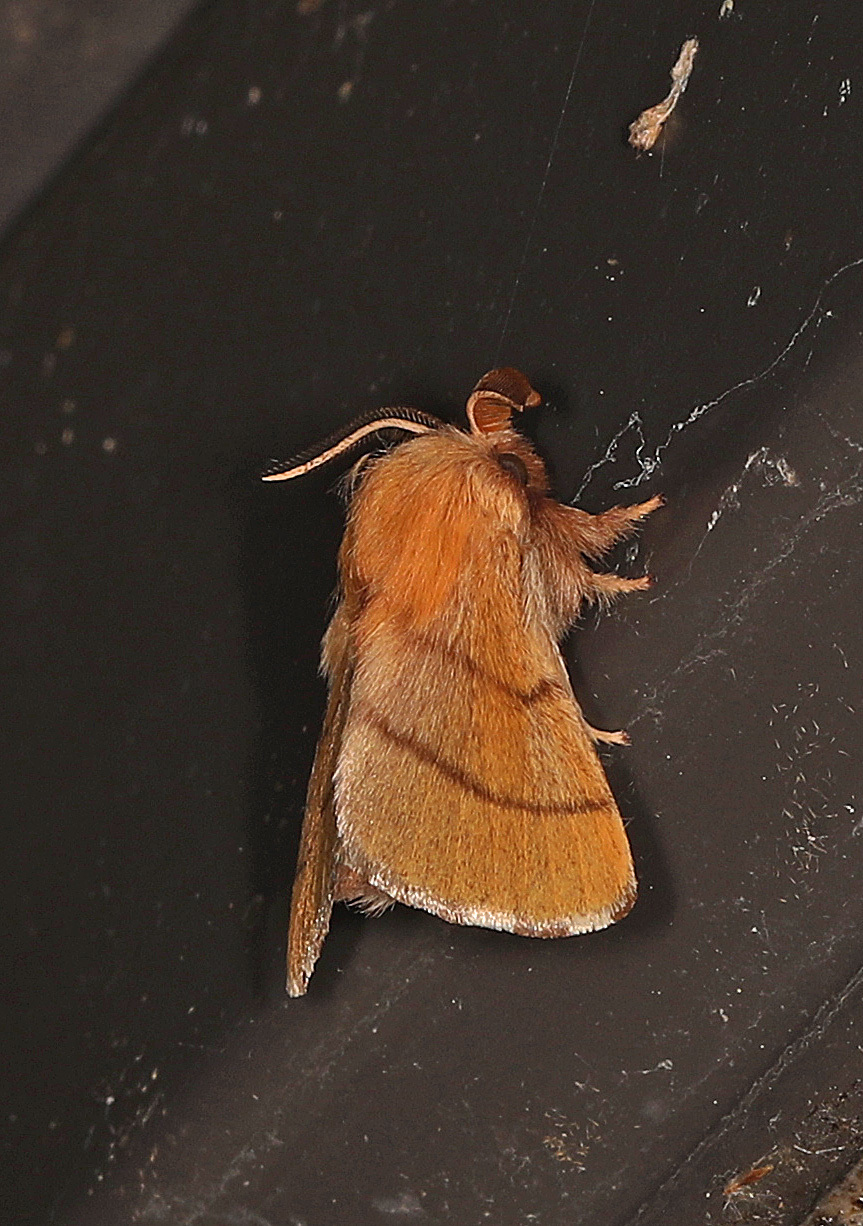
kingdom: Animalia
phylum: Arthropoda
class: Insecta
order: Lepidoptera
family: Lasiocampidae
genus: Malacosoma
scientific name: Malacosoma disstria
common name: Forest tent caterpillar
